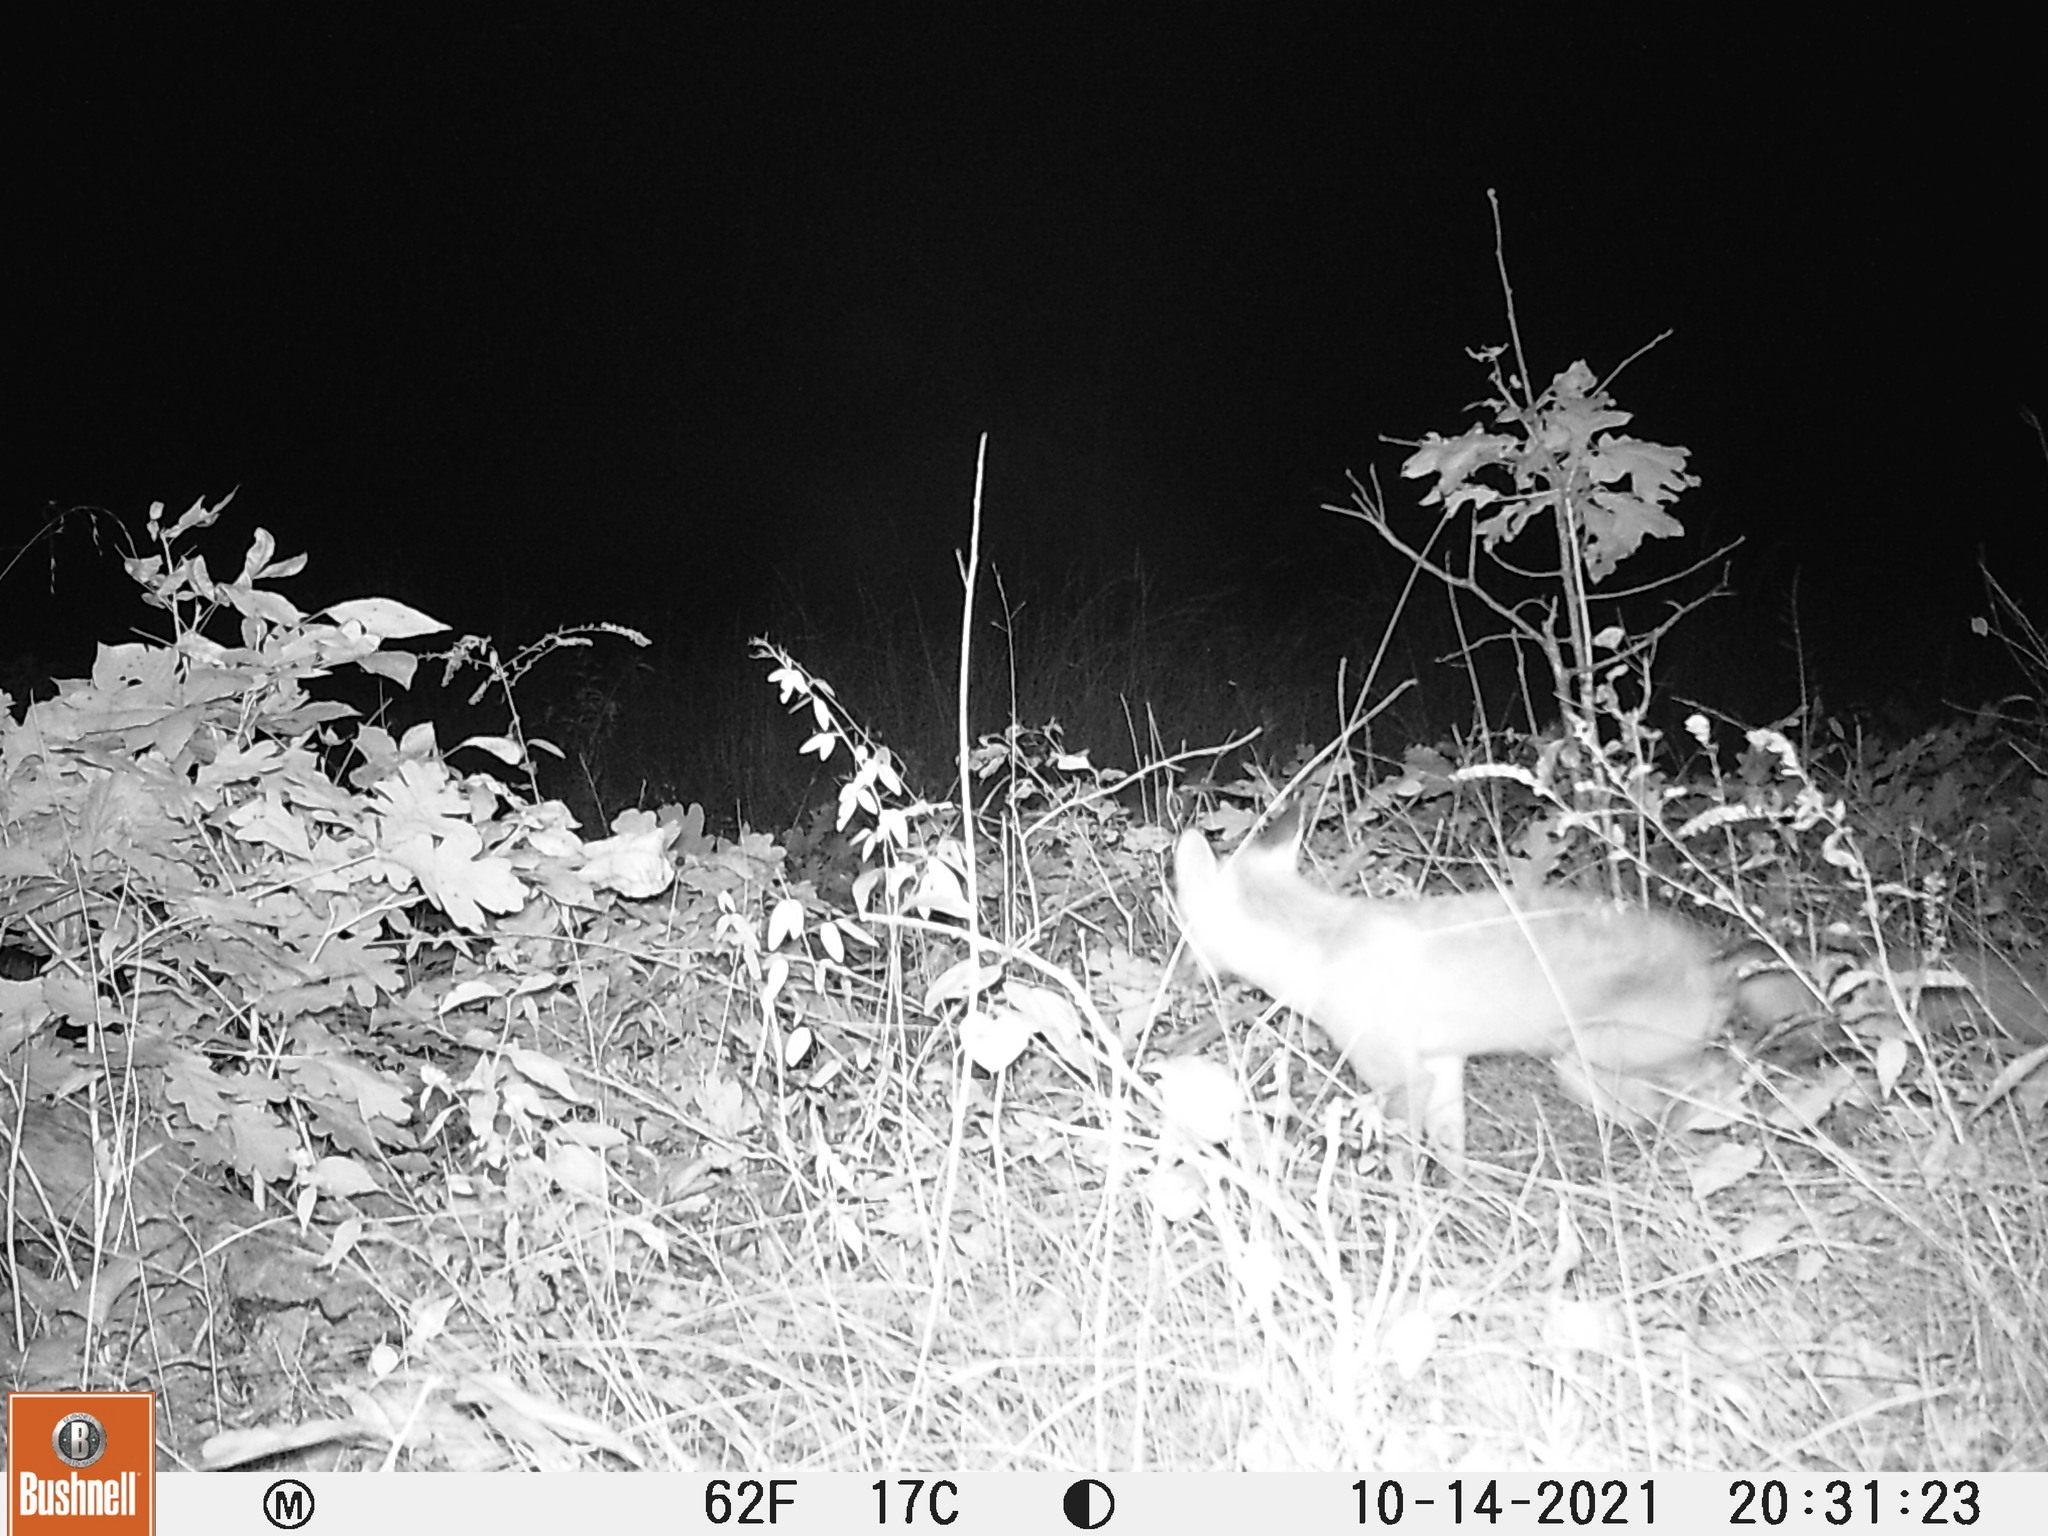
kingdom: Animalia
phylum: Chordata
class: Mammalia
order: Carnivora
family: Canidae
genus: Vulpes
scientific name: Vulpes vulpes
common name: Red fox
